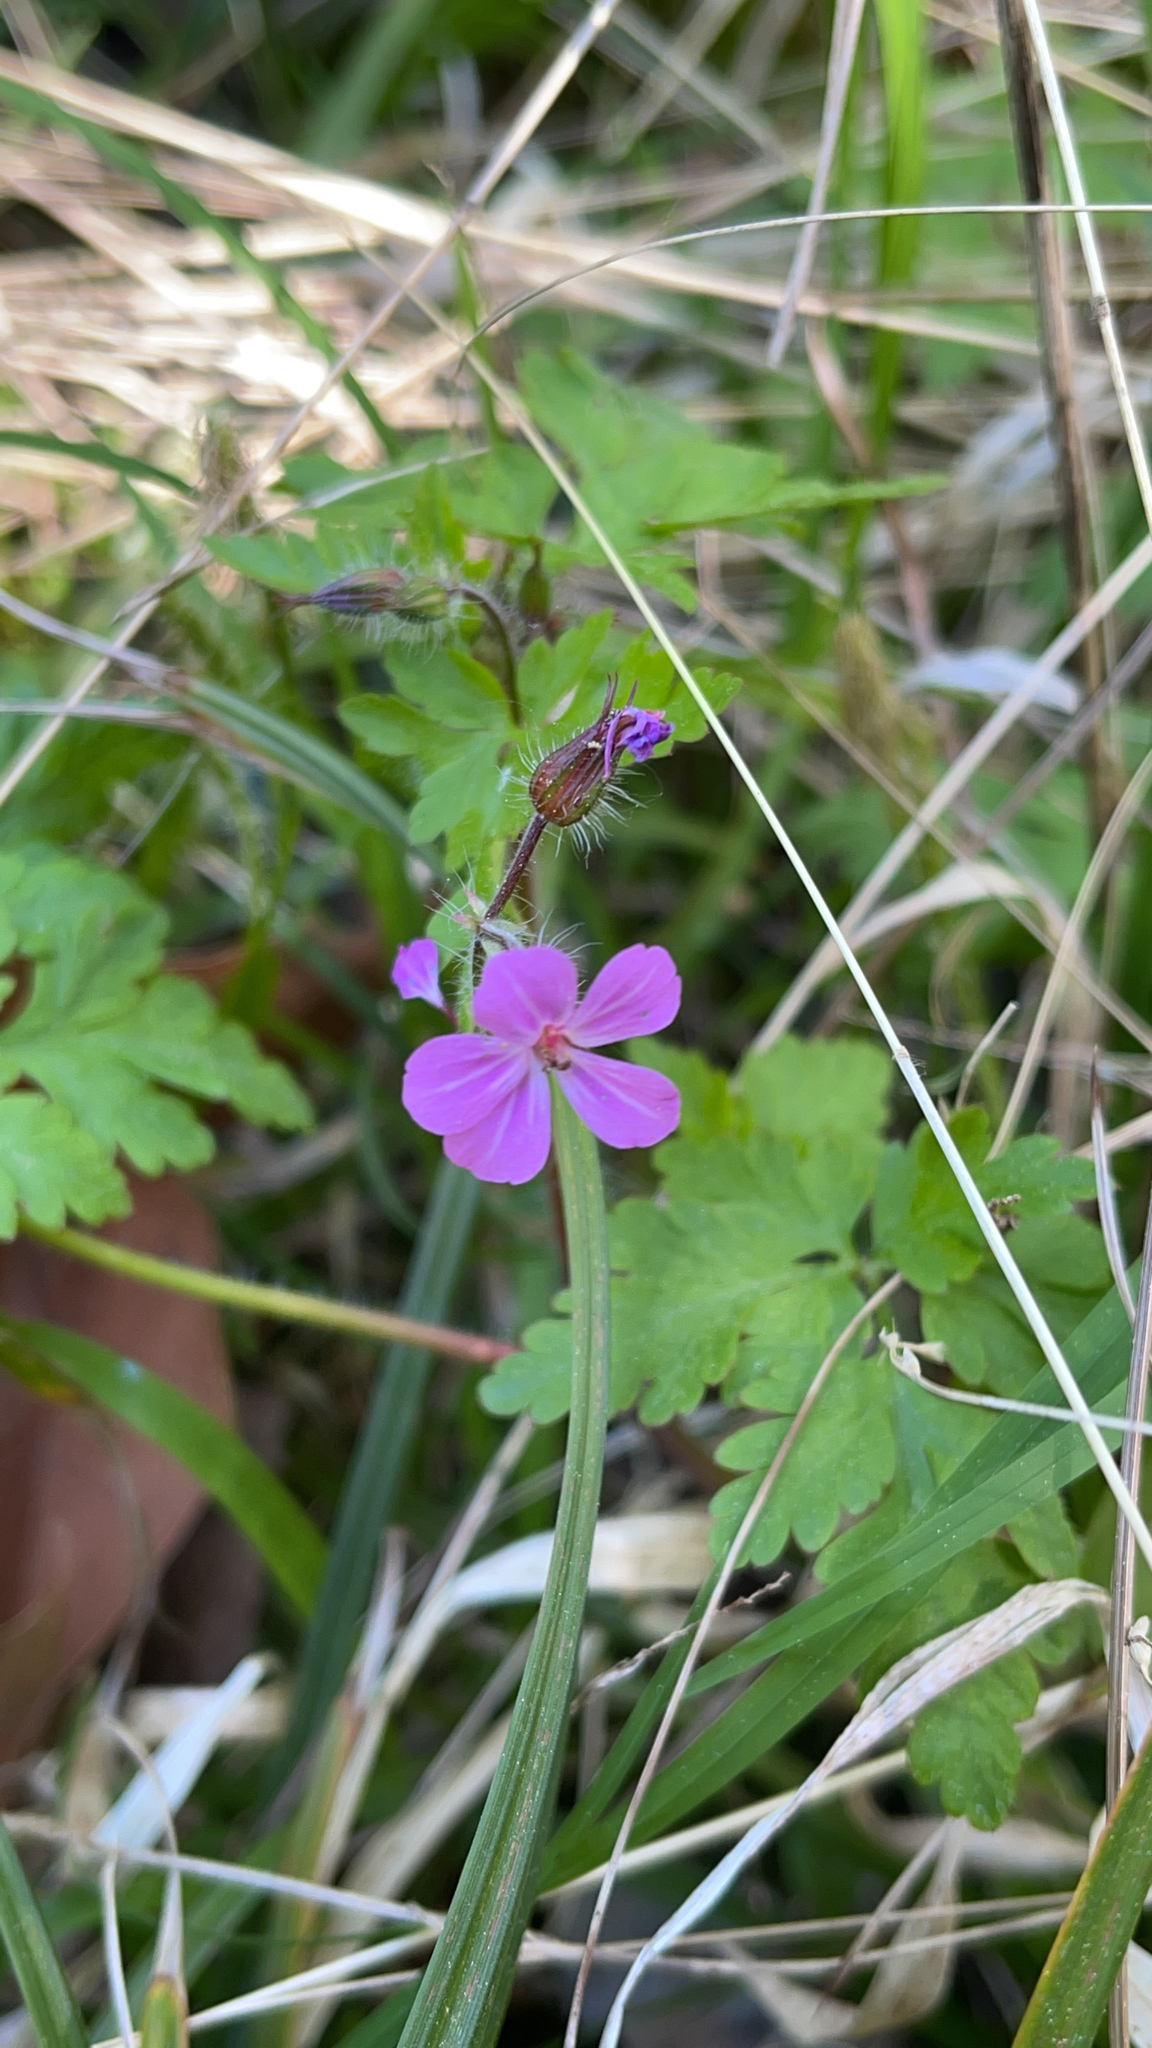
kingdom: Plantae
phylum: Tracheophyta
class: Magnoliopsida
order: Geraniales
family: Geraniaceae
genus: Geranium
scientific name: Geranium robertianum
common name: Herb-robert
